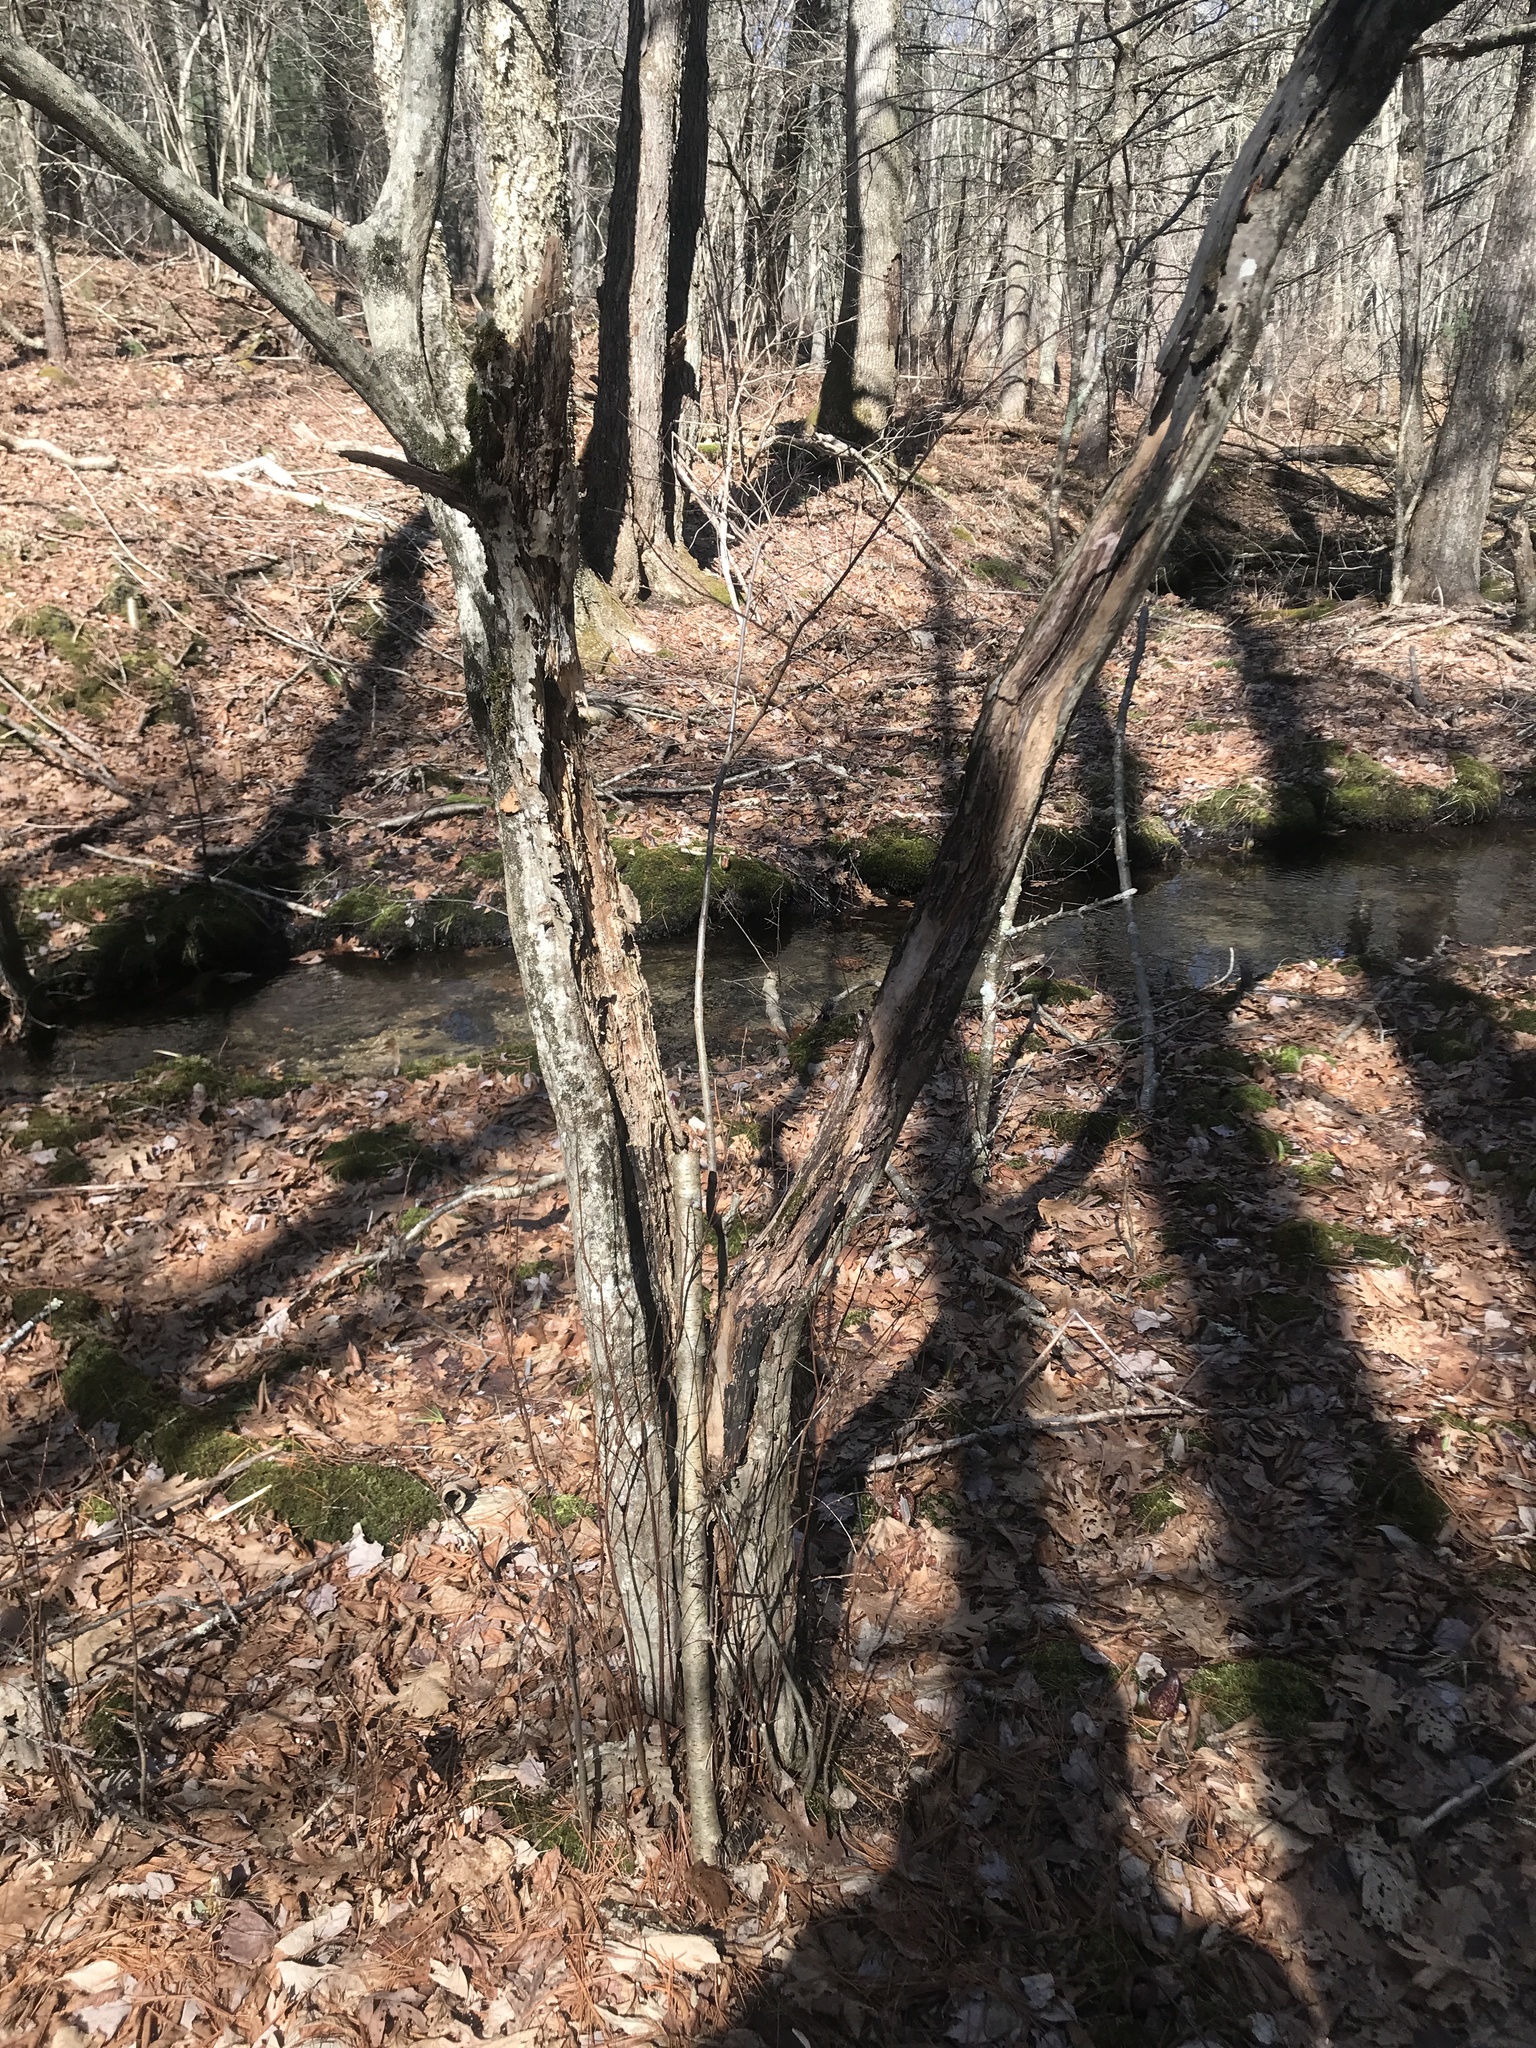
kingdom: Plantae
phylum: Tracheophyta
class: Magnoliopsida
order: Fagales
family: Betulaceae
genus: Carpinus
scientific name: Carpinus caroliniana
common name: American hornbeam
